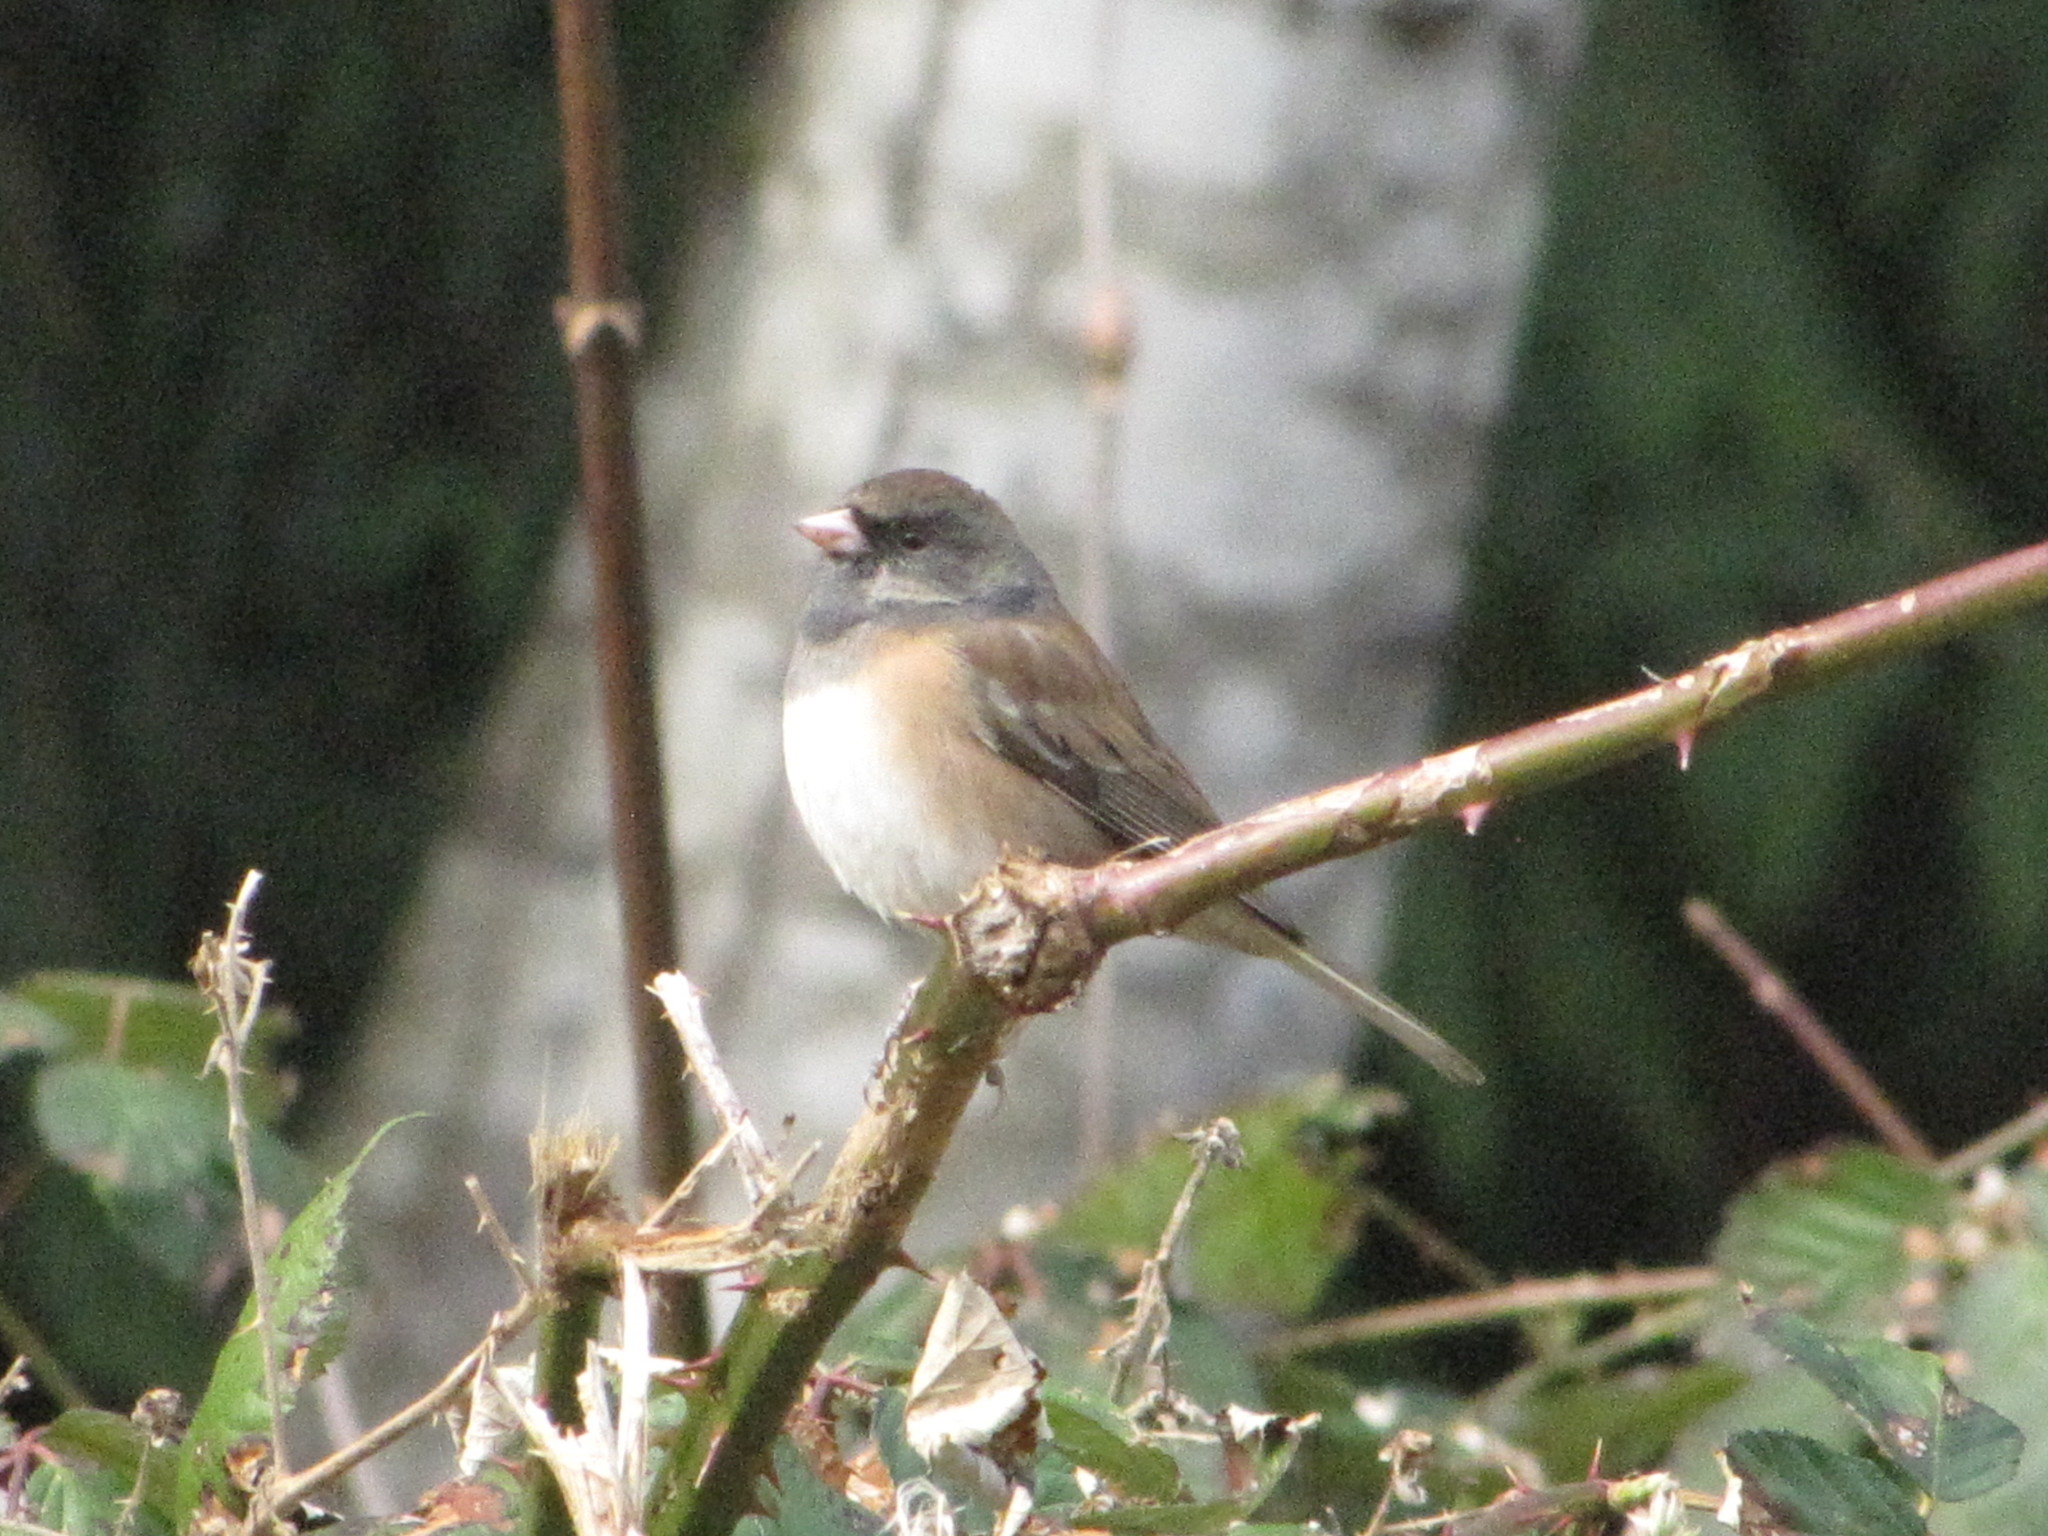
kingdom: Animalia
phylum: Chordata
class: Aves
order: Passeriformes
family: Passerellidae
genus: Junco
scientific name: Junco hyemalis
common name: Dark-eyed junco
